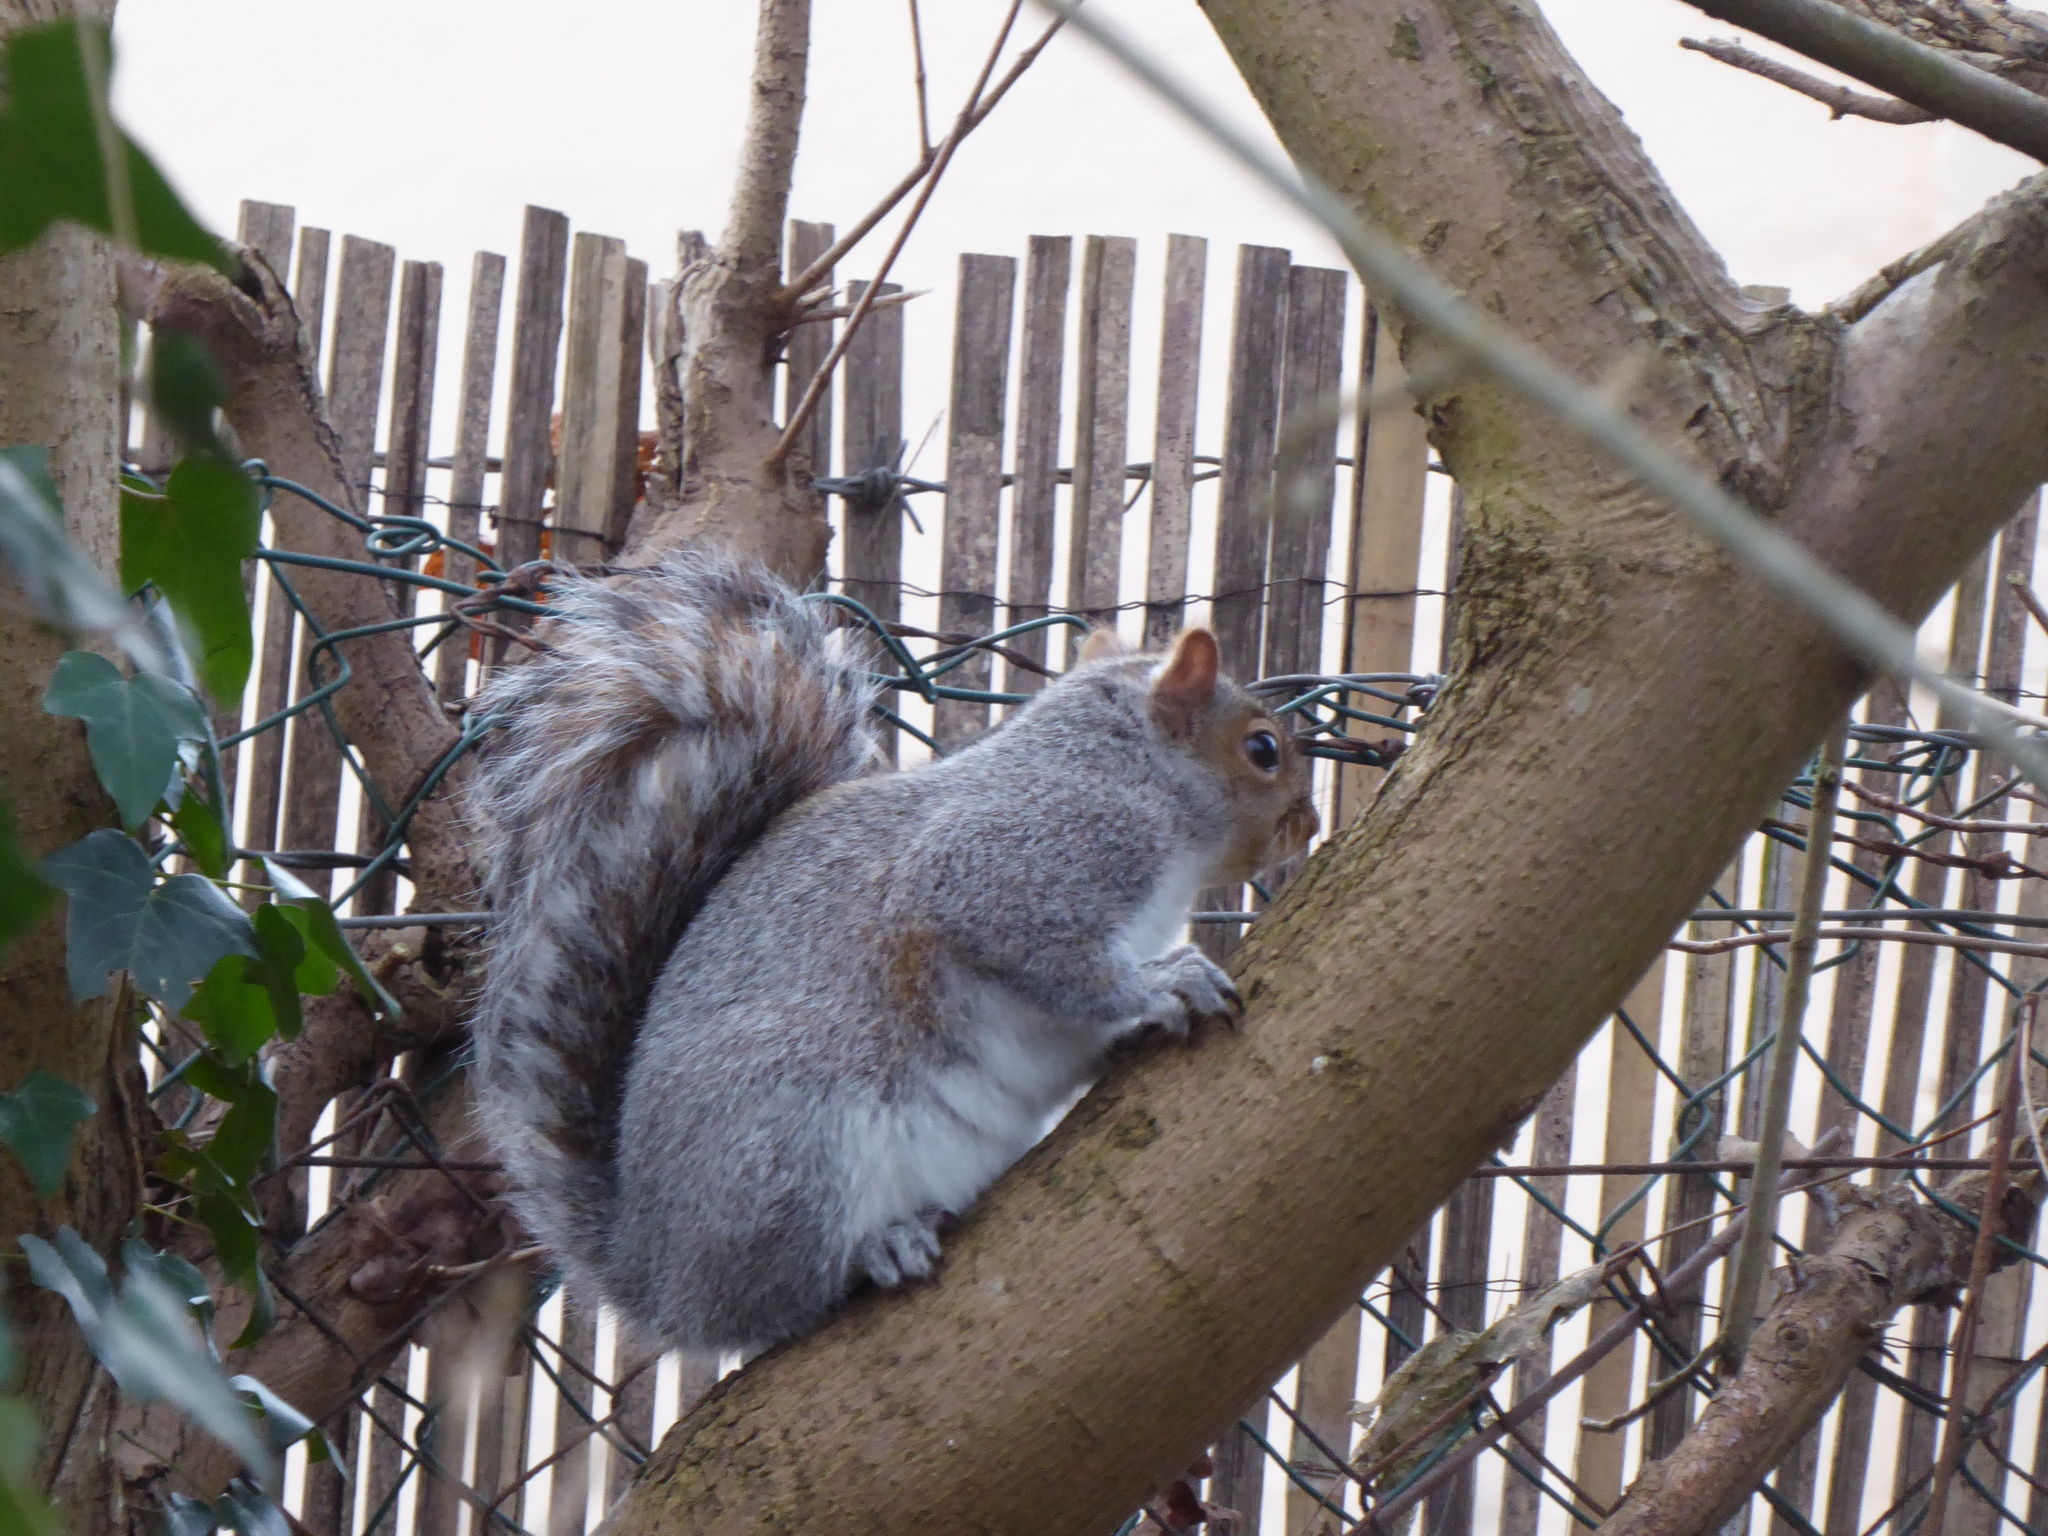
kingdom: Animalia
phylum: Chordata
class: Mammalia
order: Rodentia
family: Sciuridae
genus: Sciurus
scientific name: Sciurus carolinensis
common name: Eastern gray squirrel
